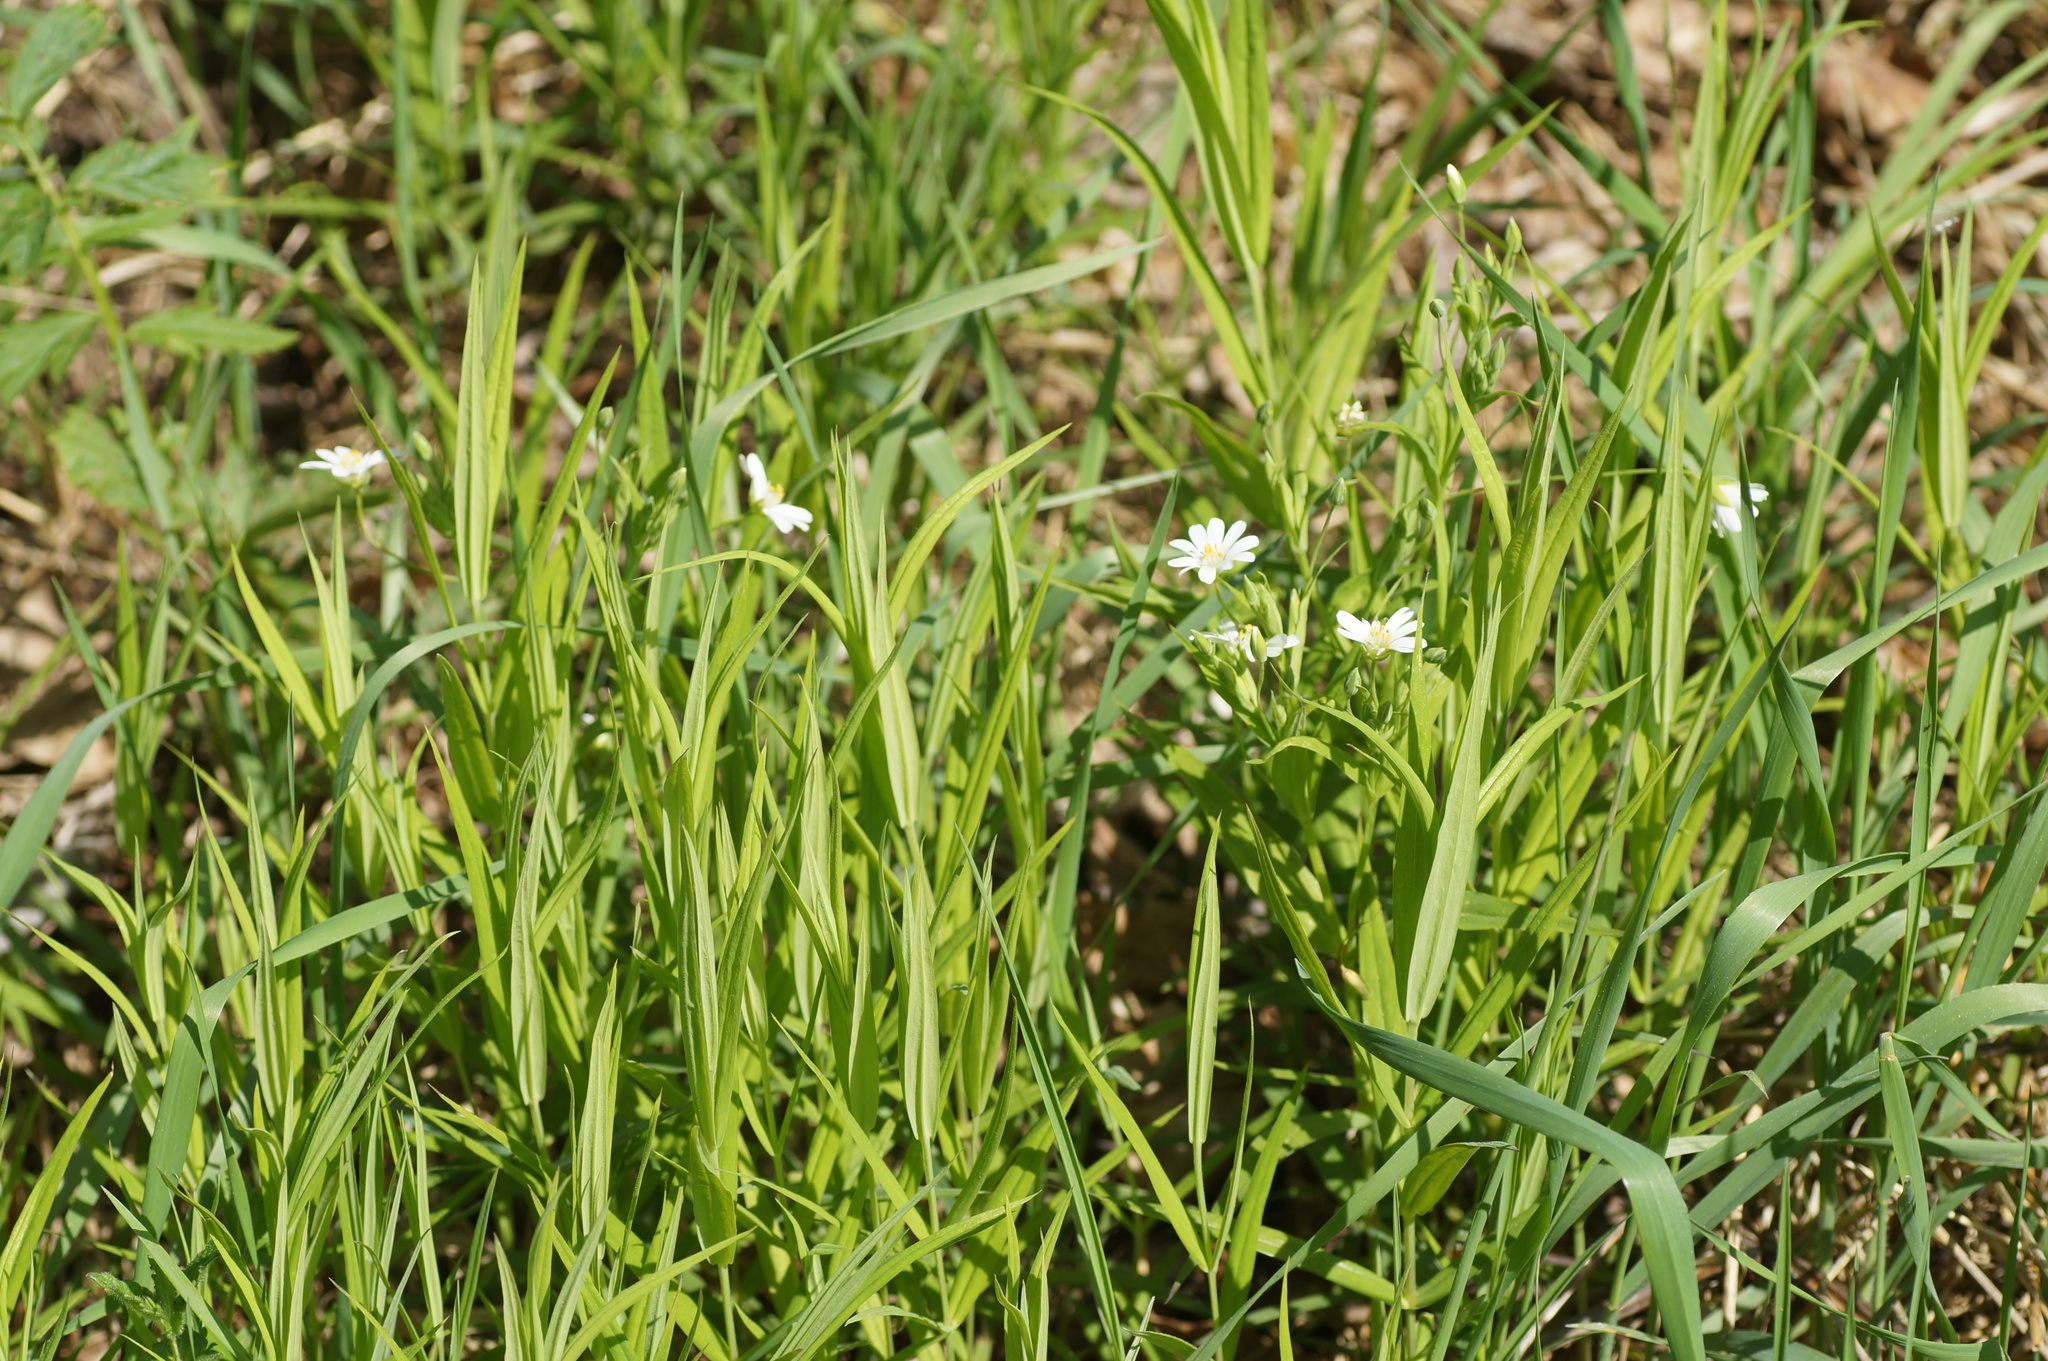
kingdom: Plantae
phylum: Tracheophyta
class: Magnoliopsida
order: Caryophyllales
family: Caryophyllaceae
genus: Rabelera
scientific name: Rabelera holostea
